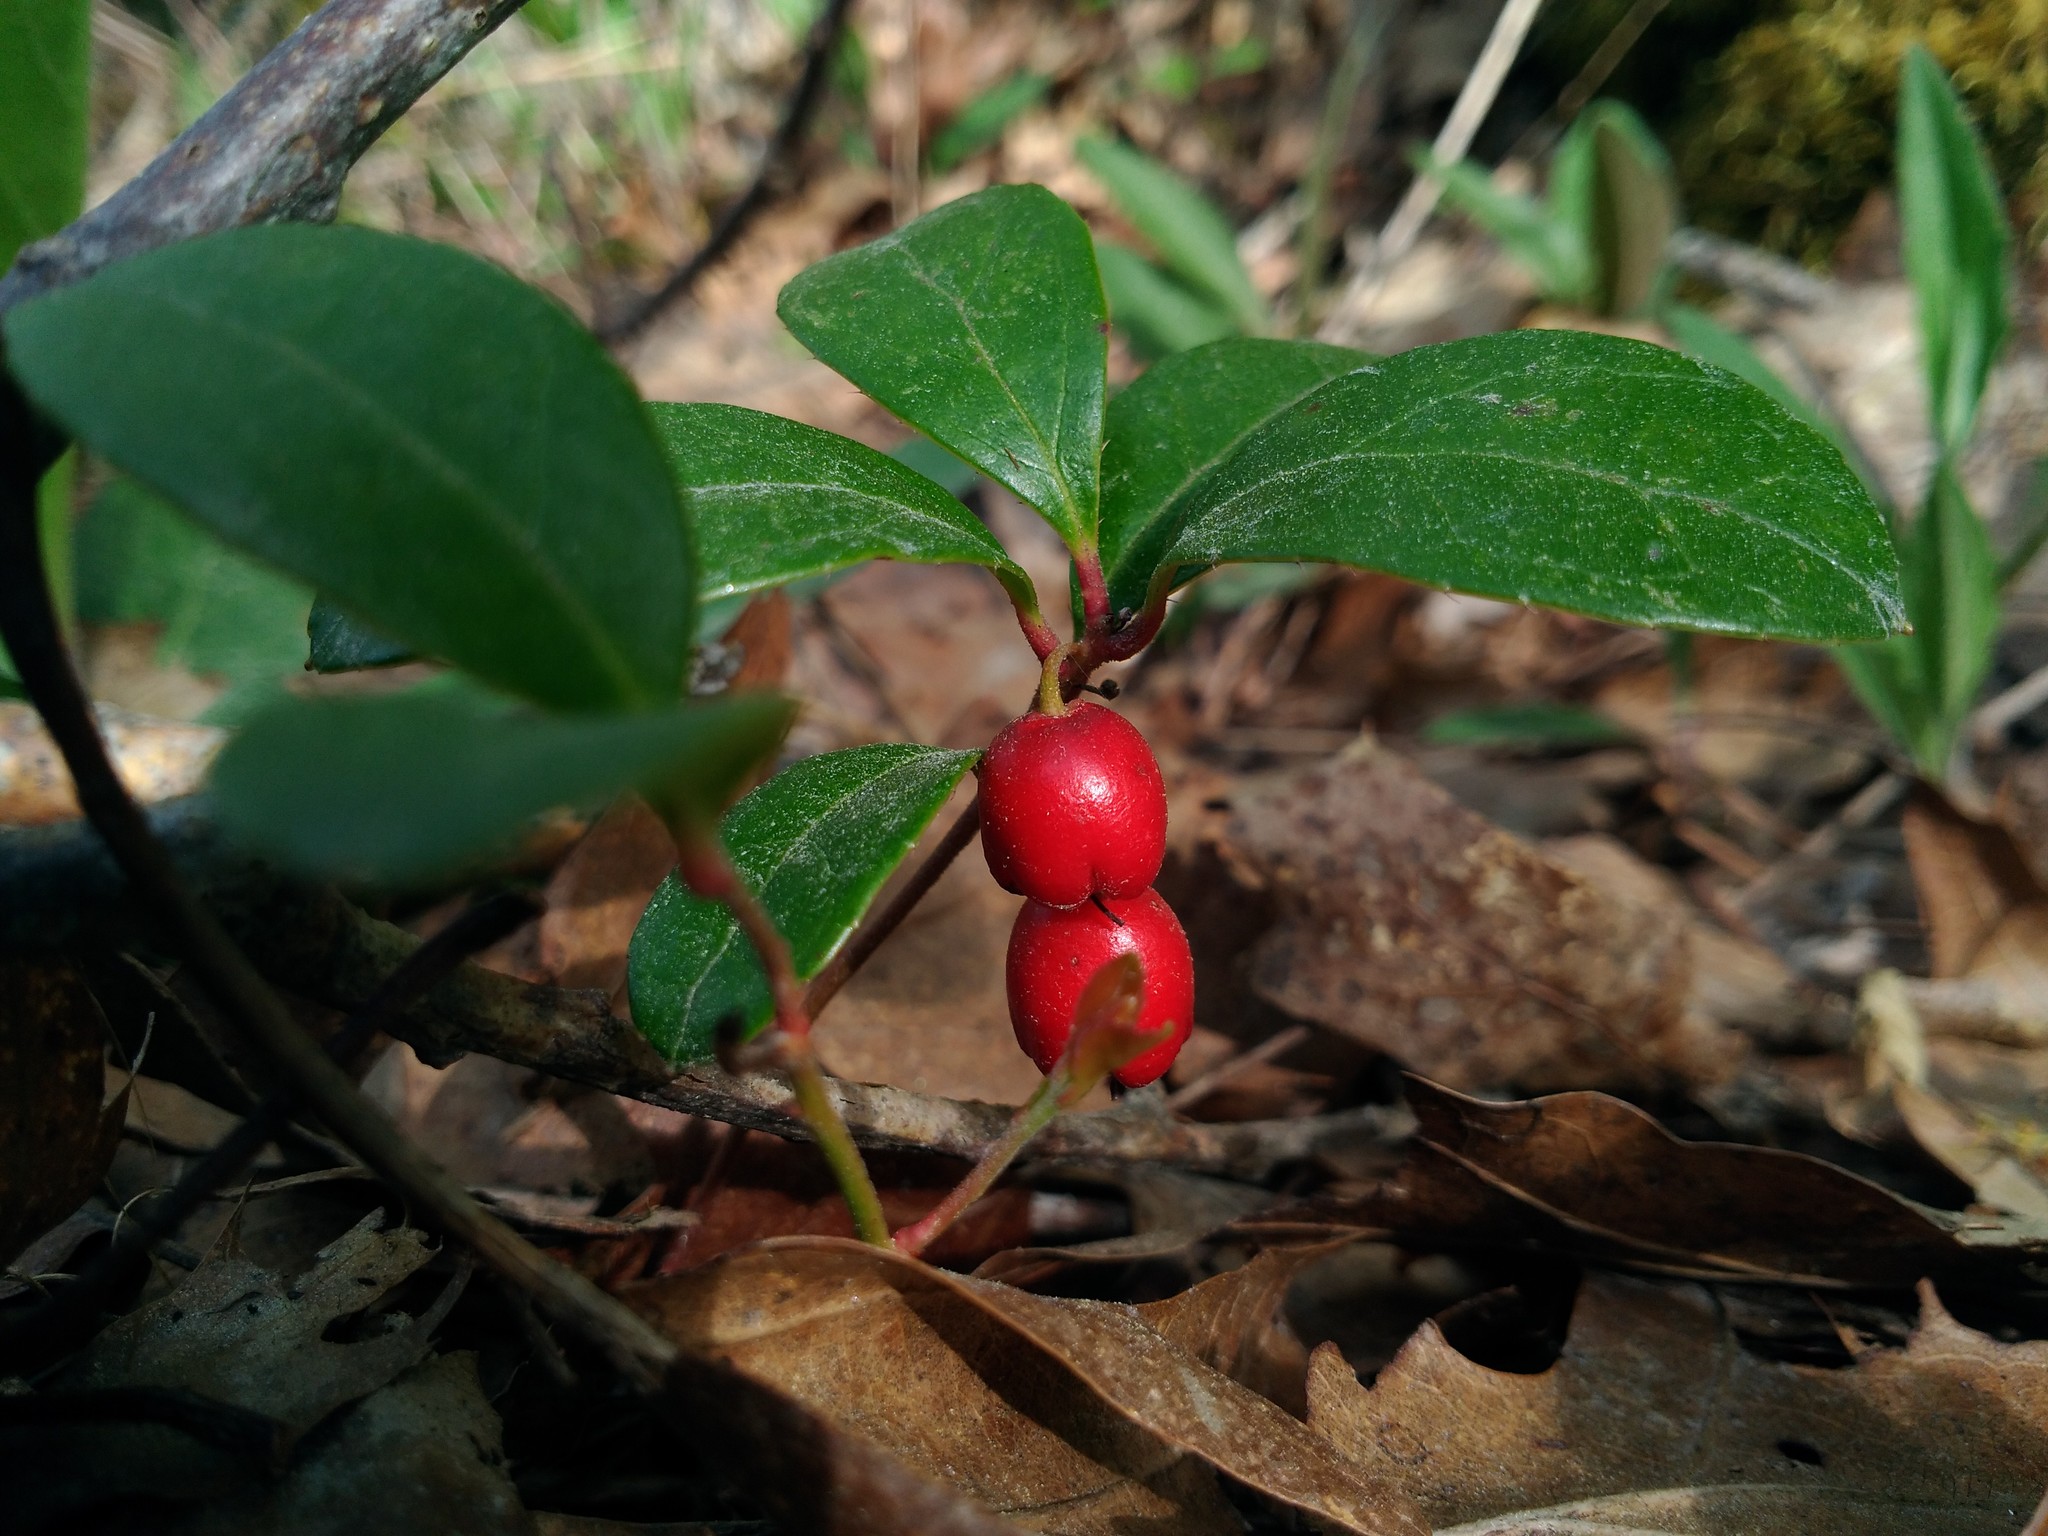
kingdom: Plantae
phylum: Tracheophyta
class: Magnoliopsida
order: Ericales
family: Ericaceae
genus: Gaultheria
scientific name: Gaultheria procumbens
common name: Checkerberry
